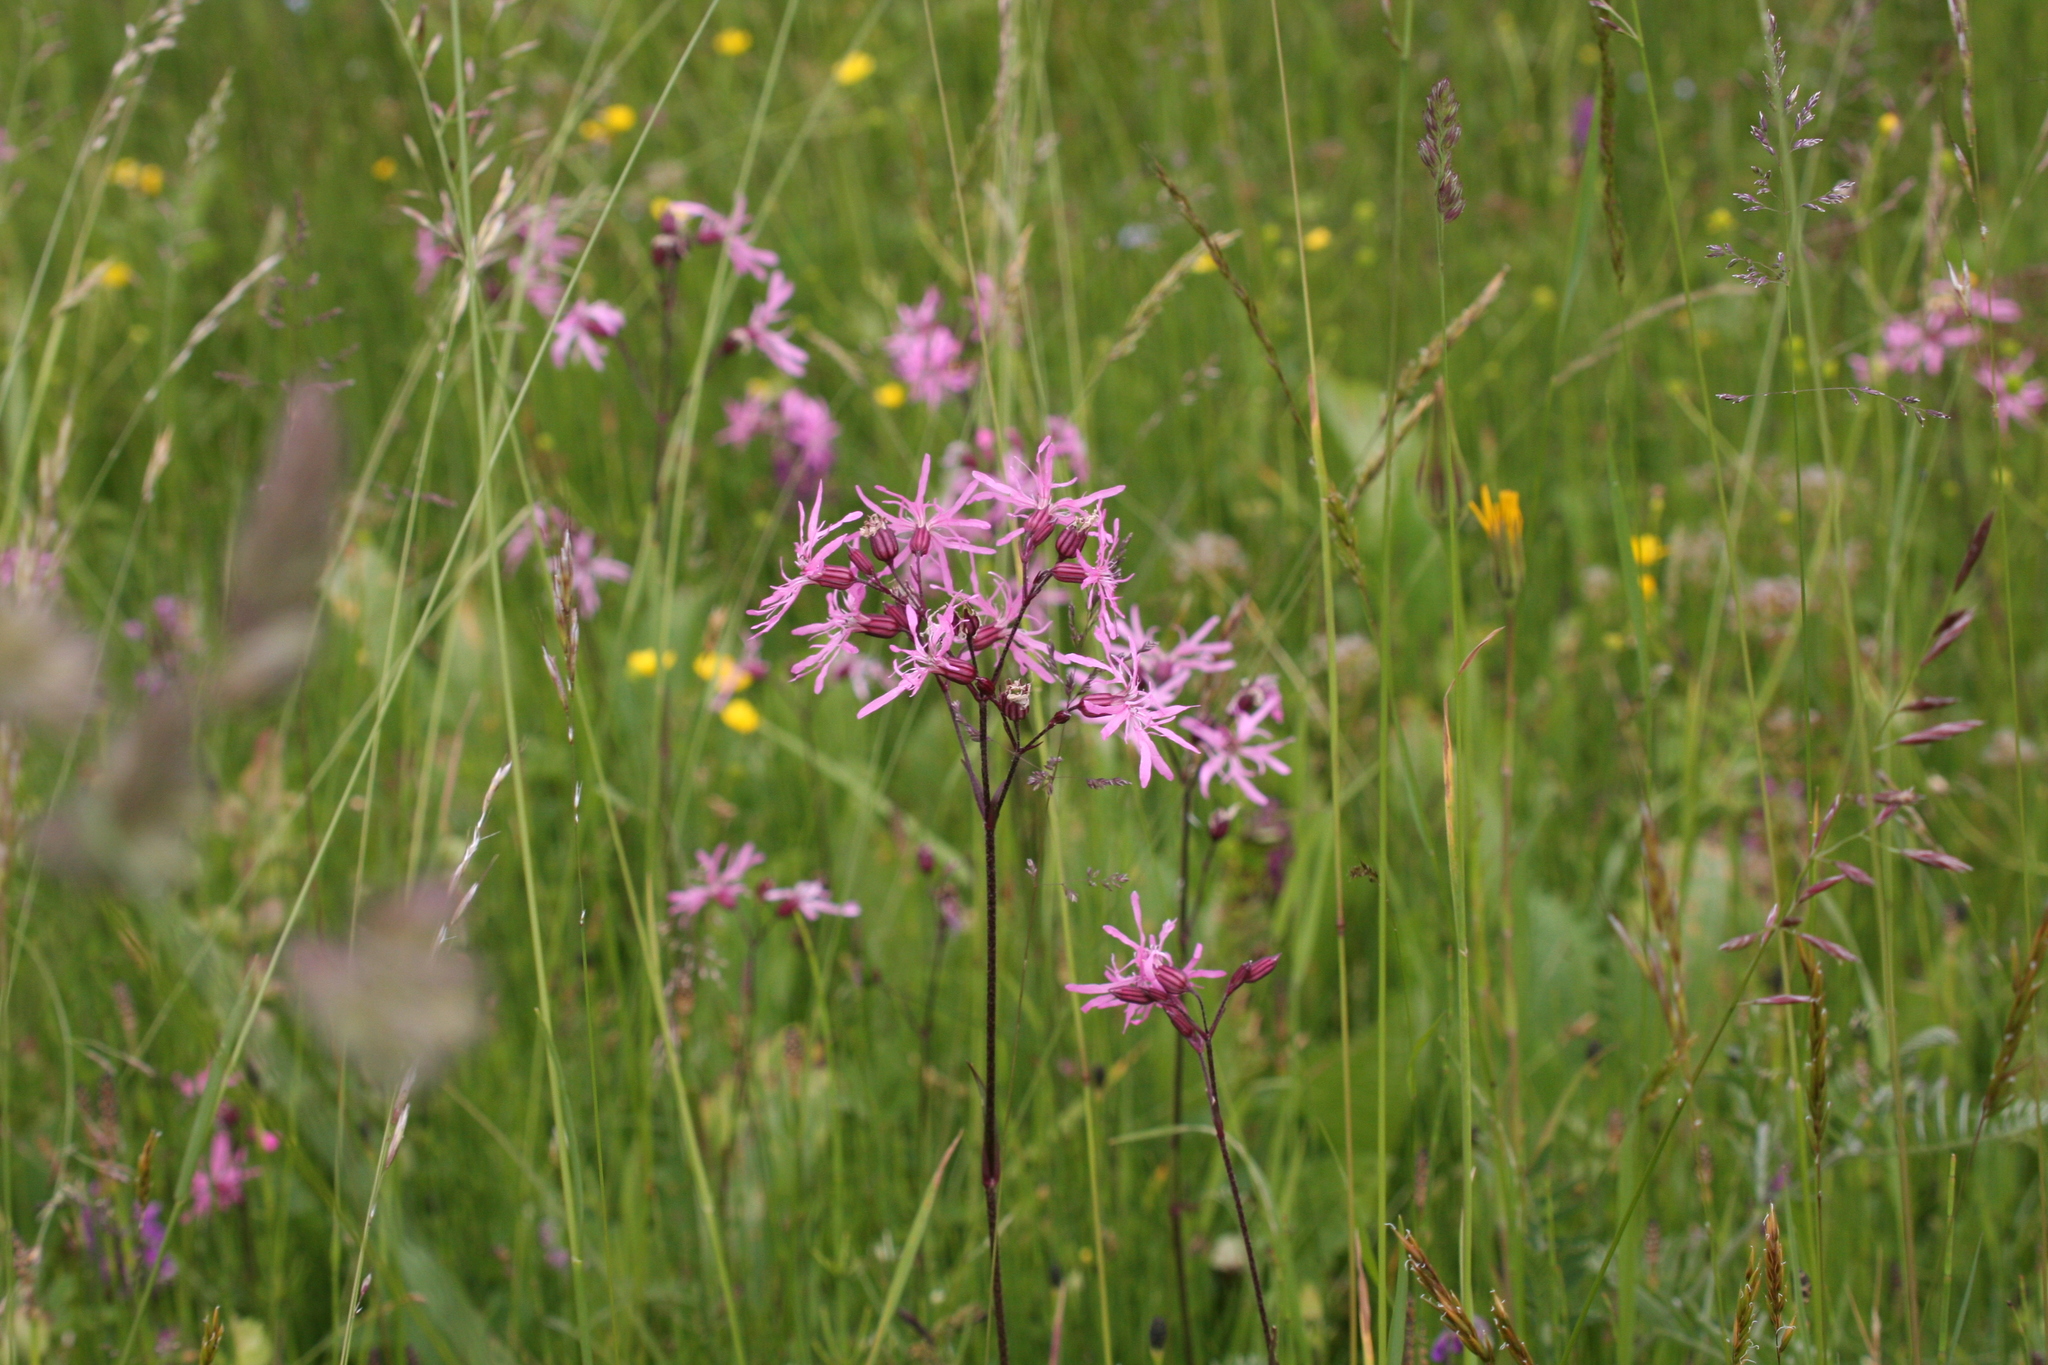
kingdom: Plantae
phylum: Tracheophyta
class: Magnoliopsida
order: Caryophyllales
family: Caryophyllaceae
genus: Silene
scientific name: Silene flos-cuculi
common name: Ragged-robin
